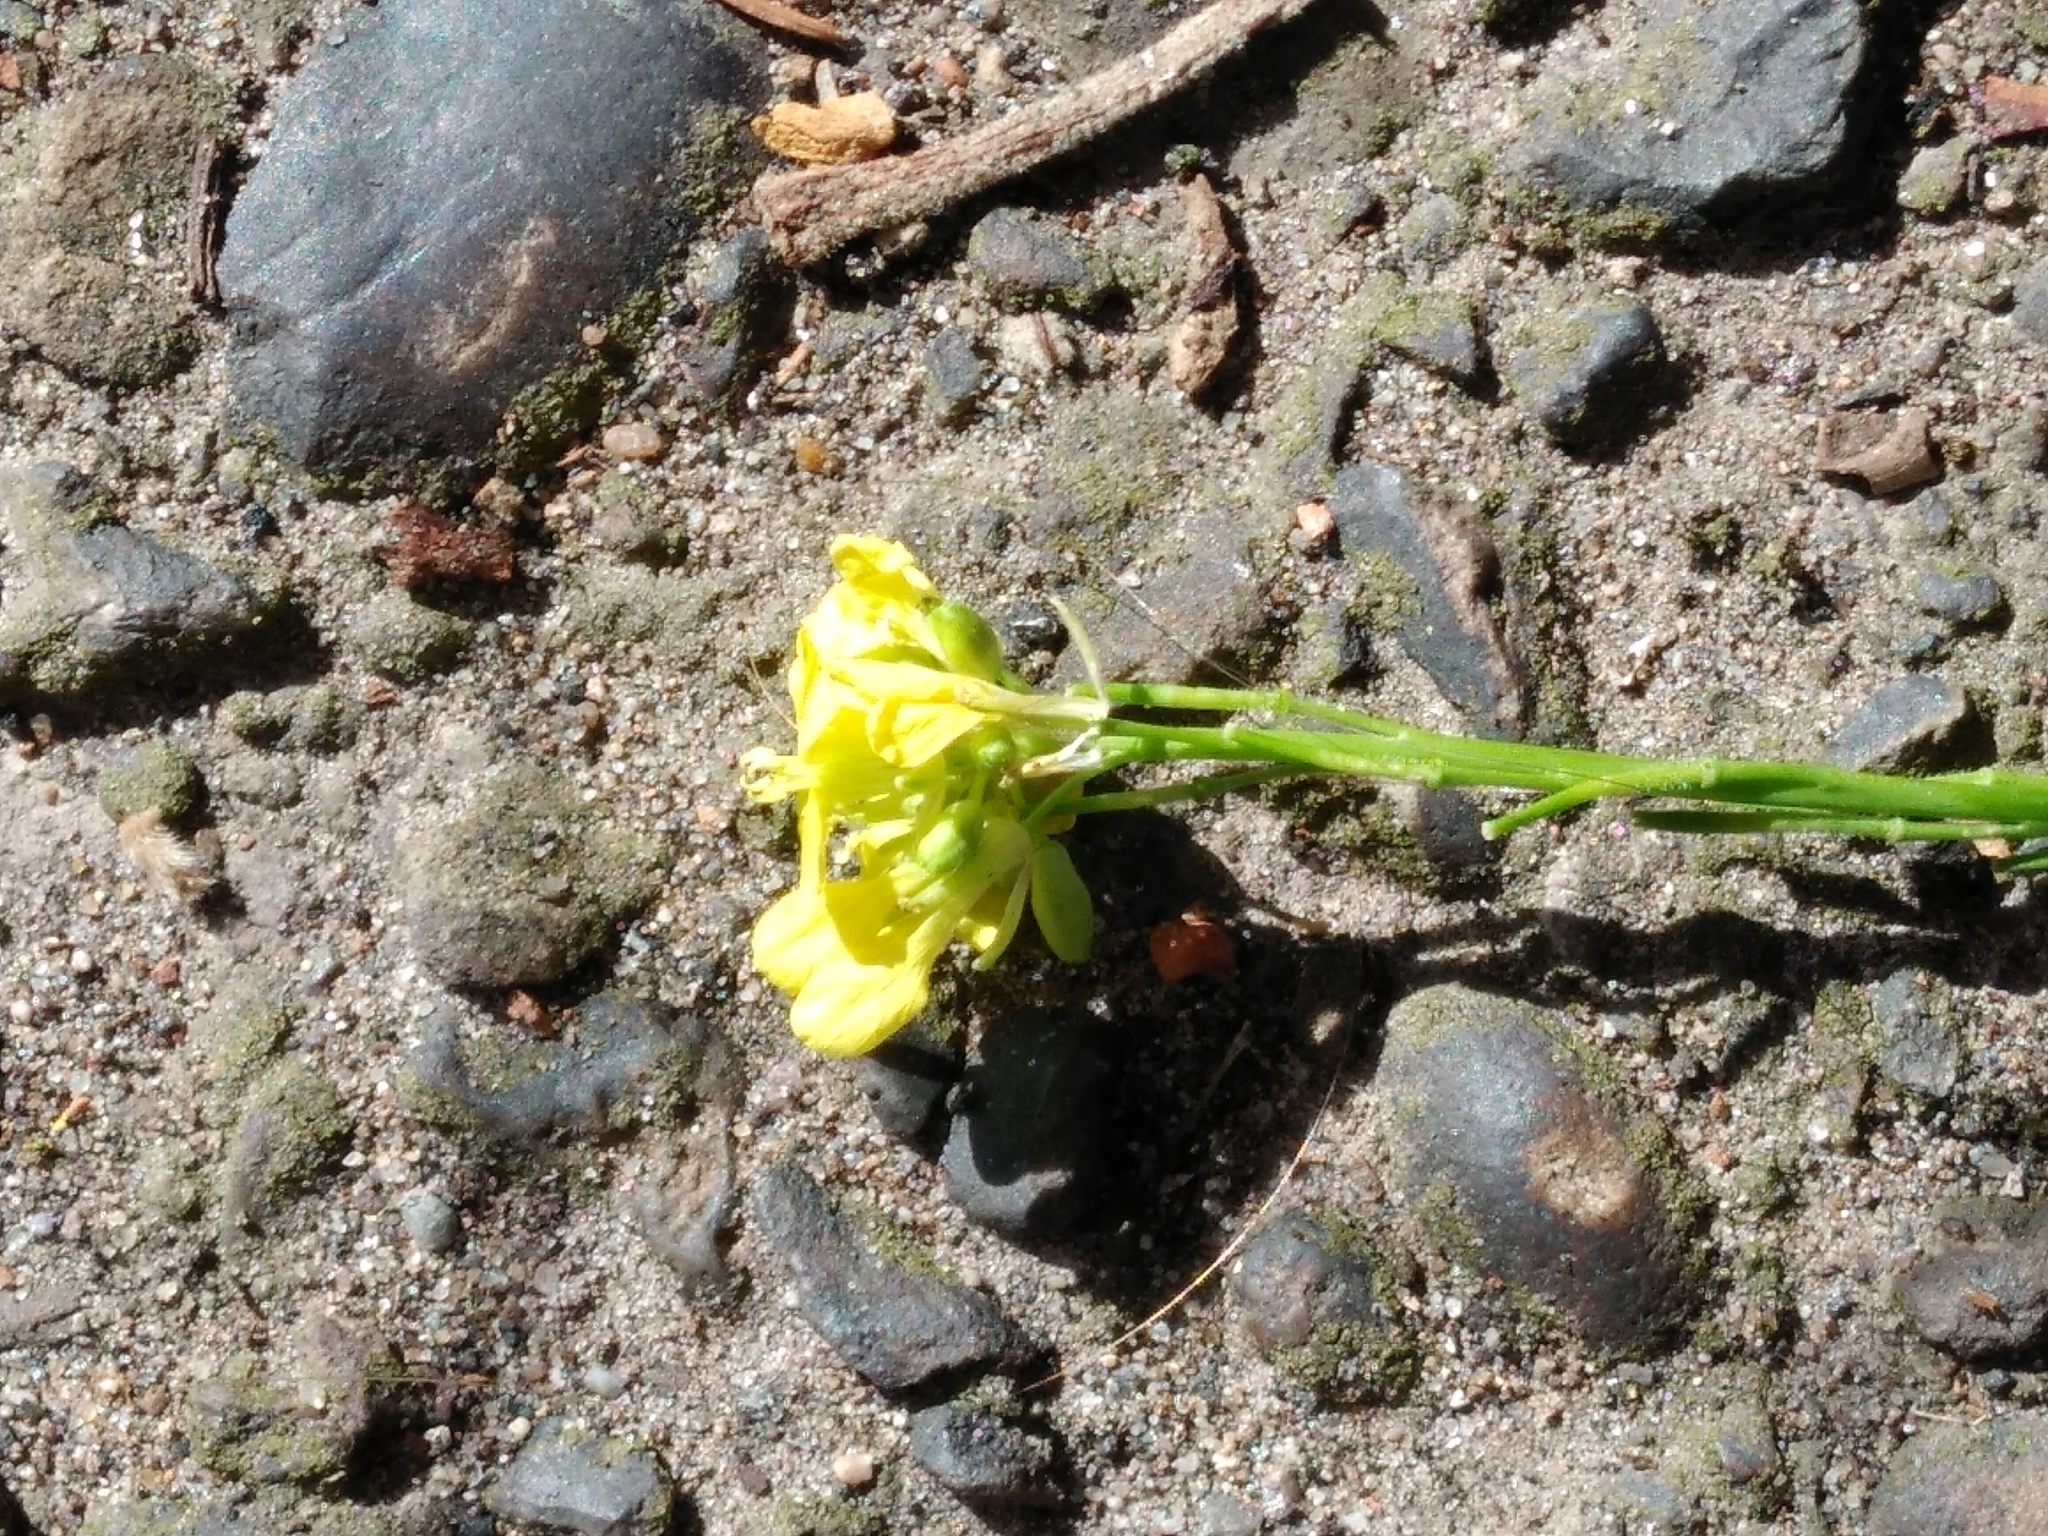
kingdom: Plantae
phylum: Tracheophyta
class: Magnoliopsida
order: Brassicales
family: Brassicaceae
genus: Hirschfeldia
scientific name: Hirschfeldia incana
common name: Hoary mustard
